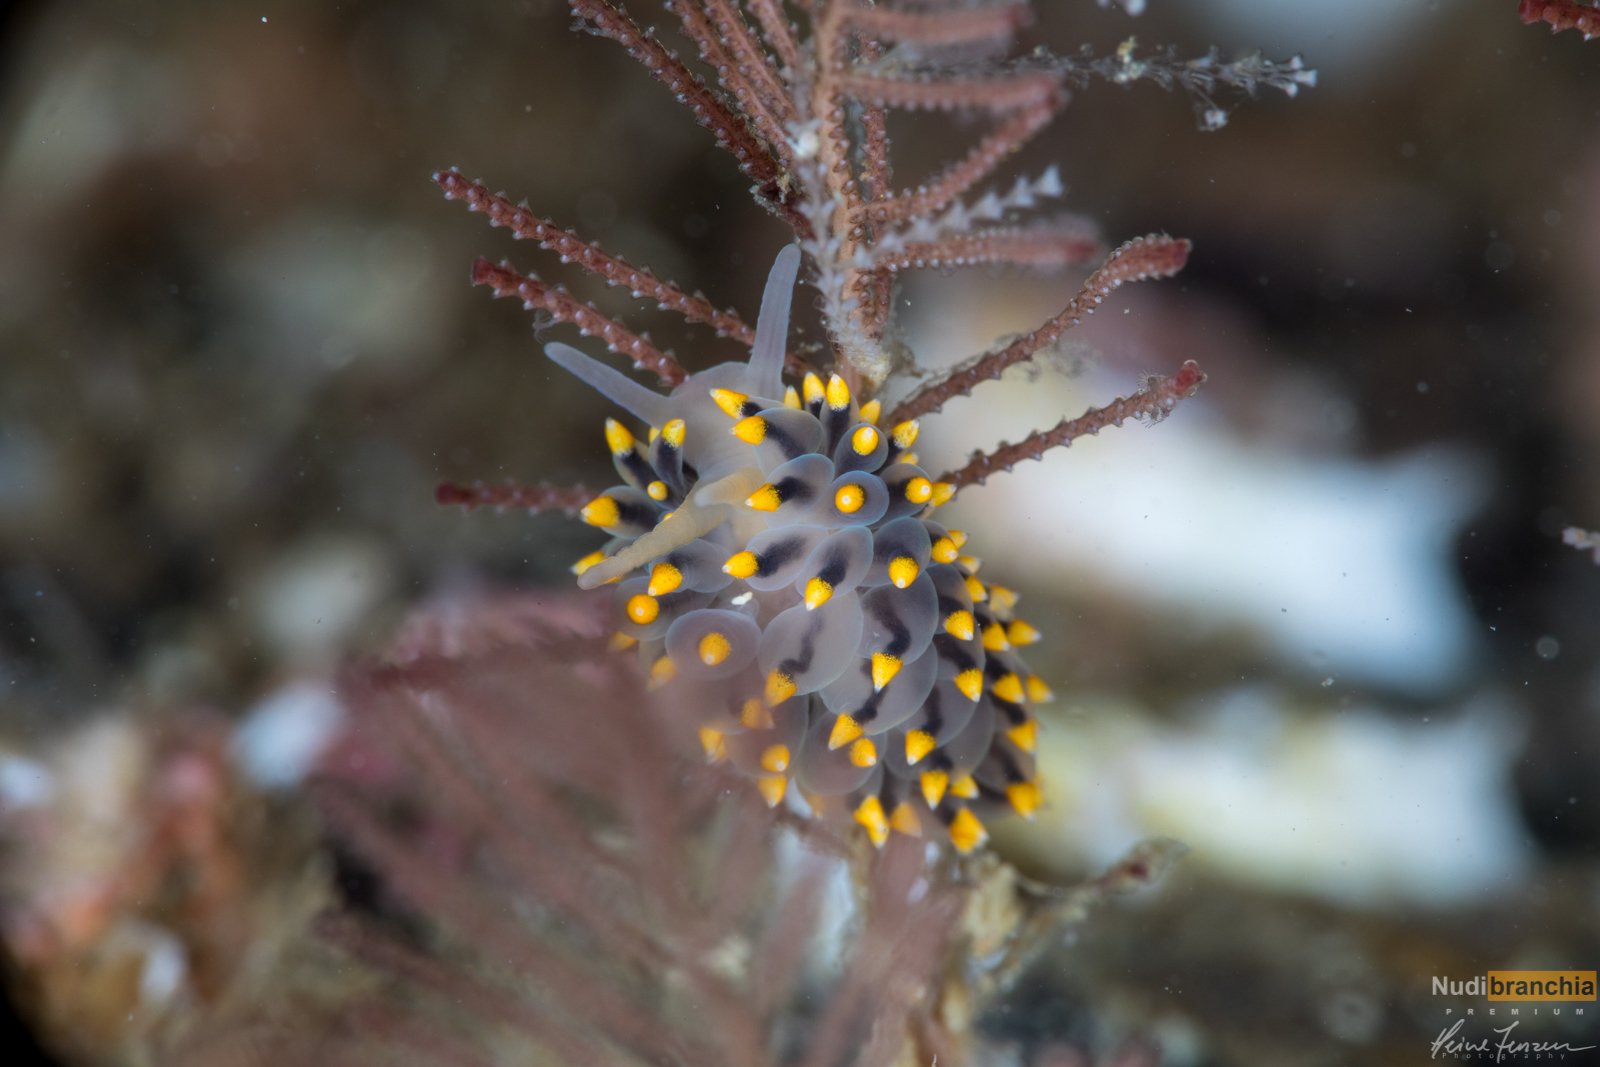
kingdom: Animalia
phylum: Mollusca
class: Gastropoda
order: Nudibranchia
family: Eubranchidae
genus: Eubranchus
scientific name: Eubranchus tricolor
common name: Painted balloon aeolis
